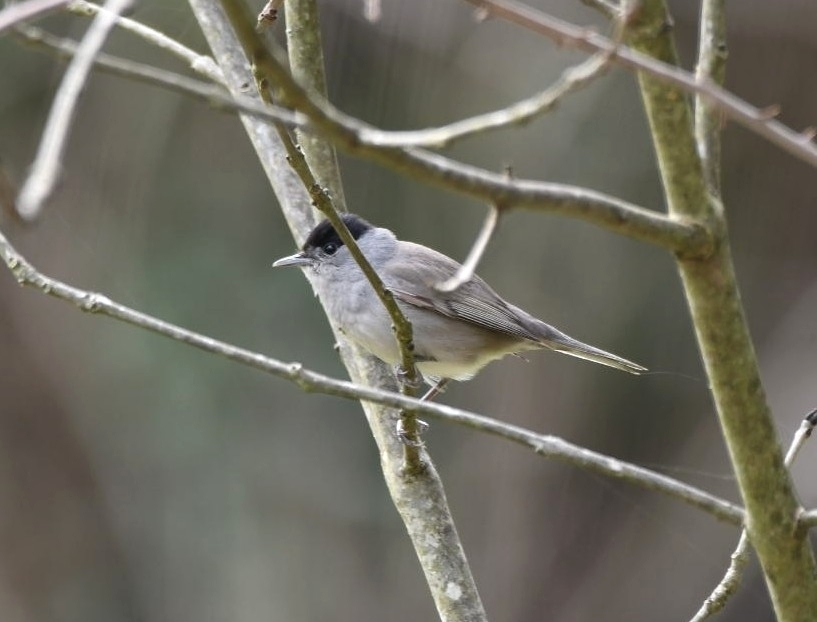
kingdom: Animalia
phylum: Chordata
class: Aves
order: Passeriformes
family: Sylviidae
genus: Sylvia
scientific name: Sylvia atricapilla
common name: Eurasian blackcap
